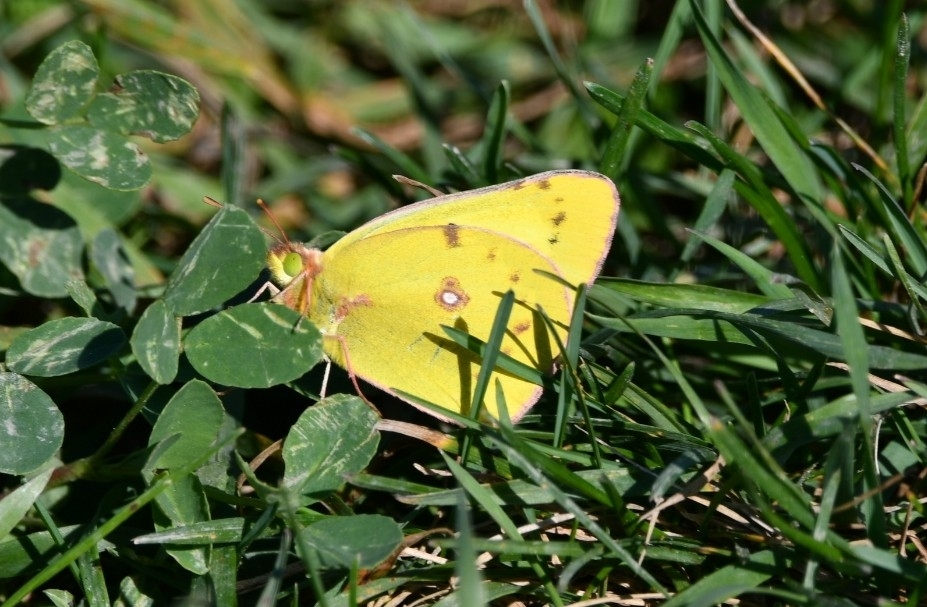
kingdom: Animalia
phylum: Arthropoda
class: Insecta
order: Lepidoptera
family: Pieridae
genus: Colias
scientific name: Colias philodice
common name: Clouded sulphur
